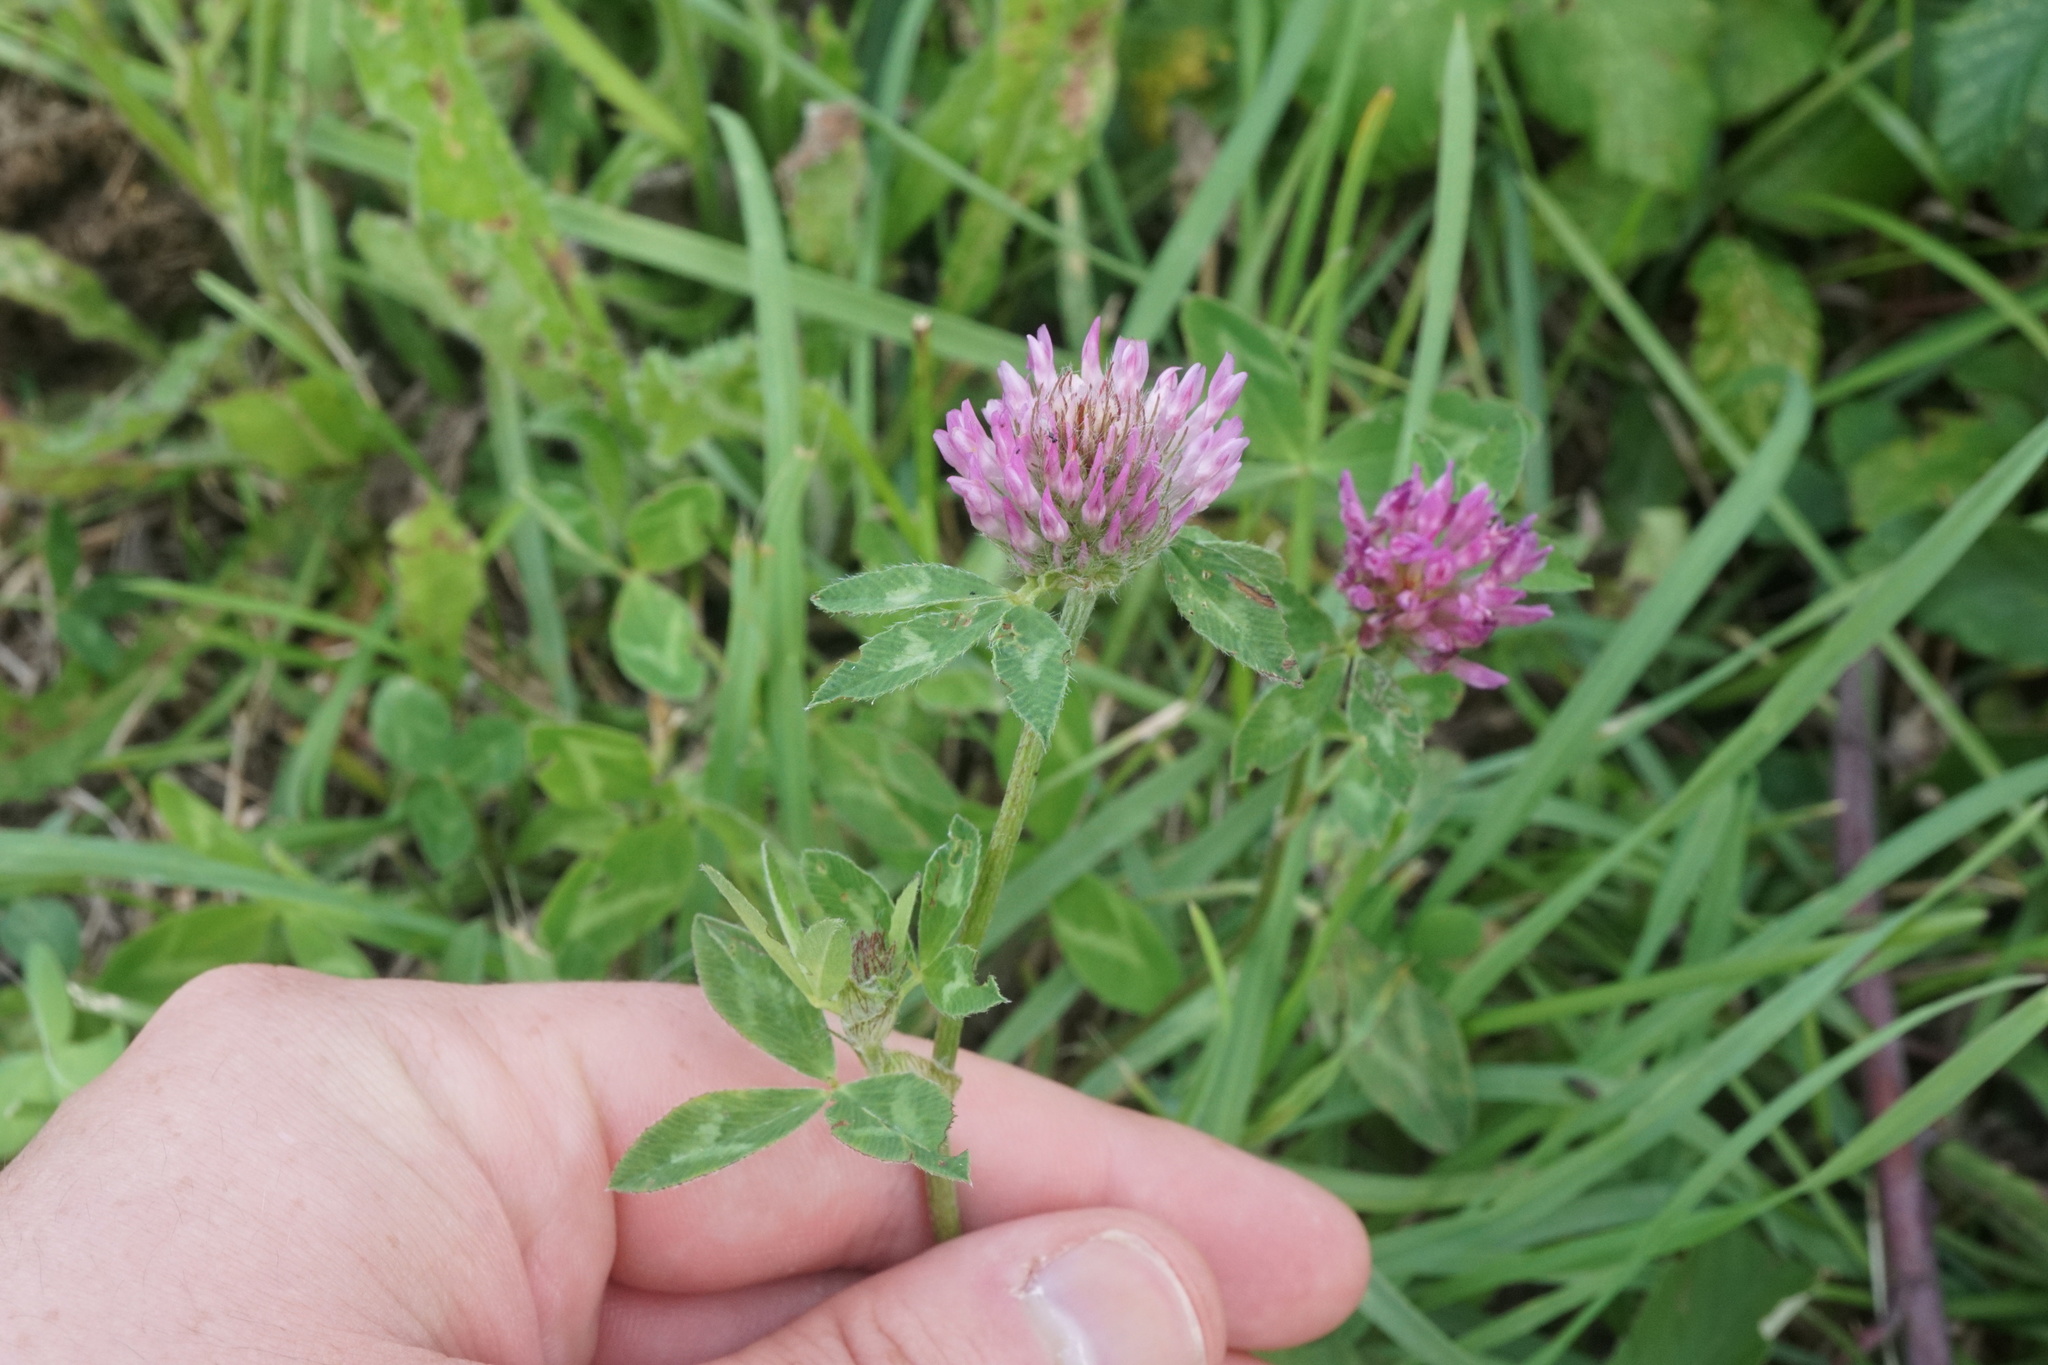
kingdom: Plantae
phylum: Tracheophyta
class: Magnoliopsida
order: Fabales
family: Fabaceae
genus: Trifolium
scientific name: Trifolium pratense
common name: Red clover
